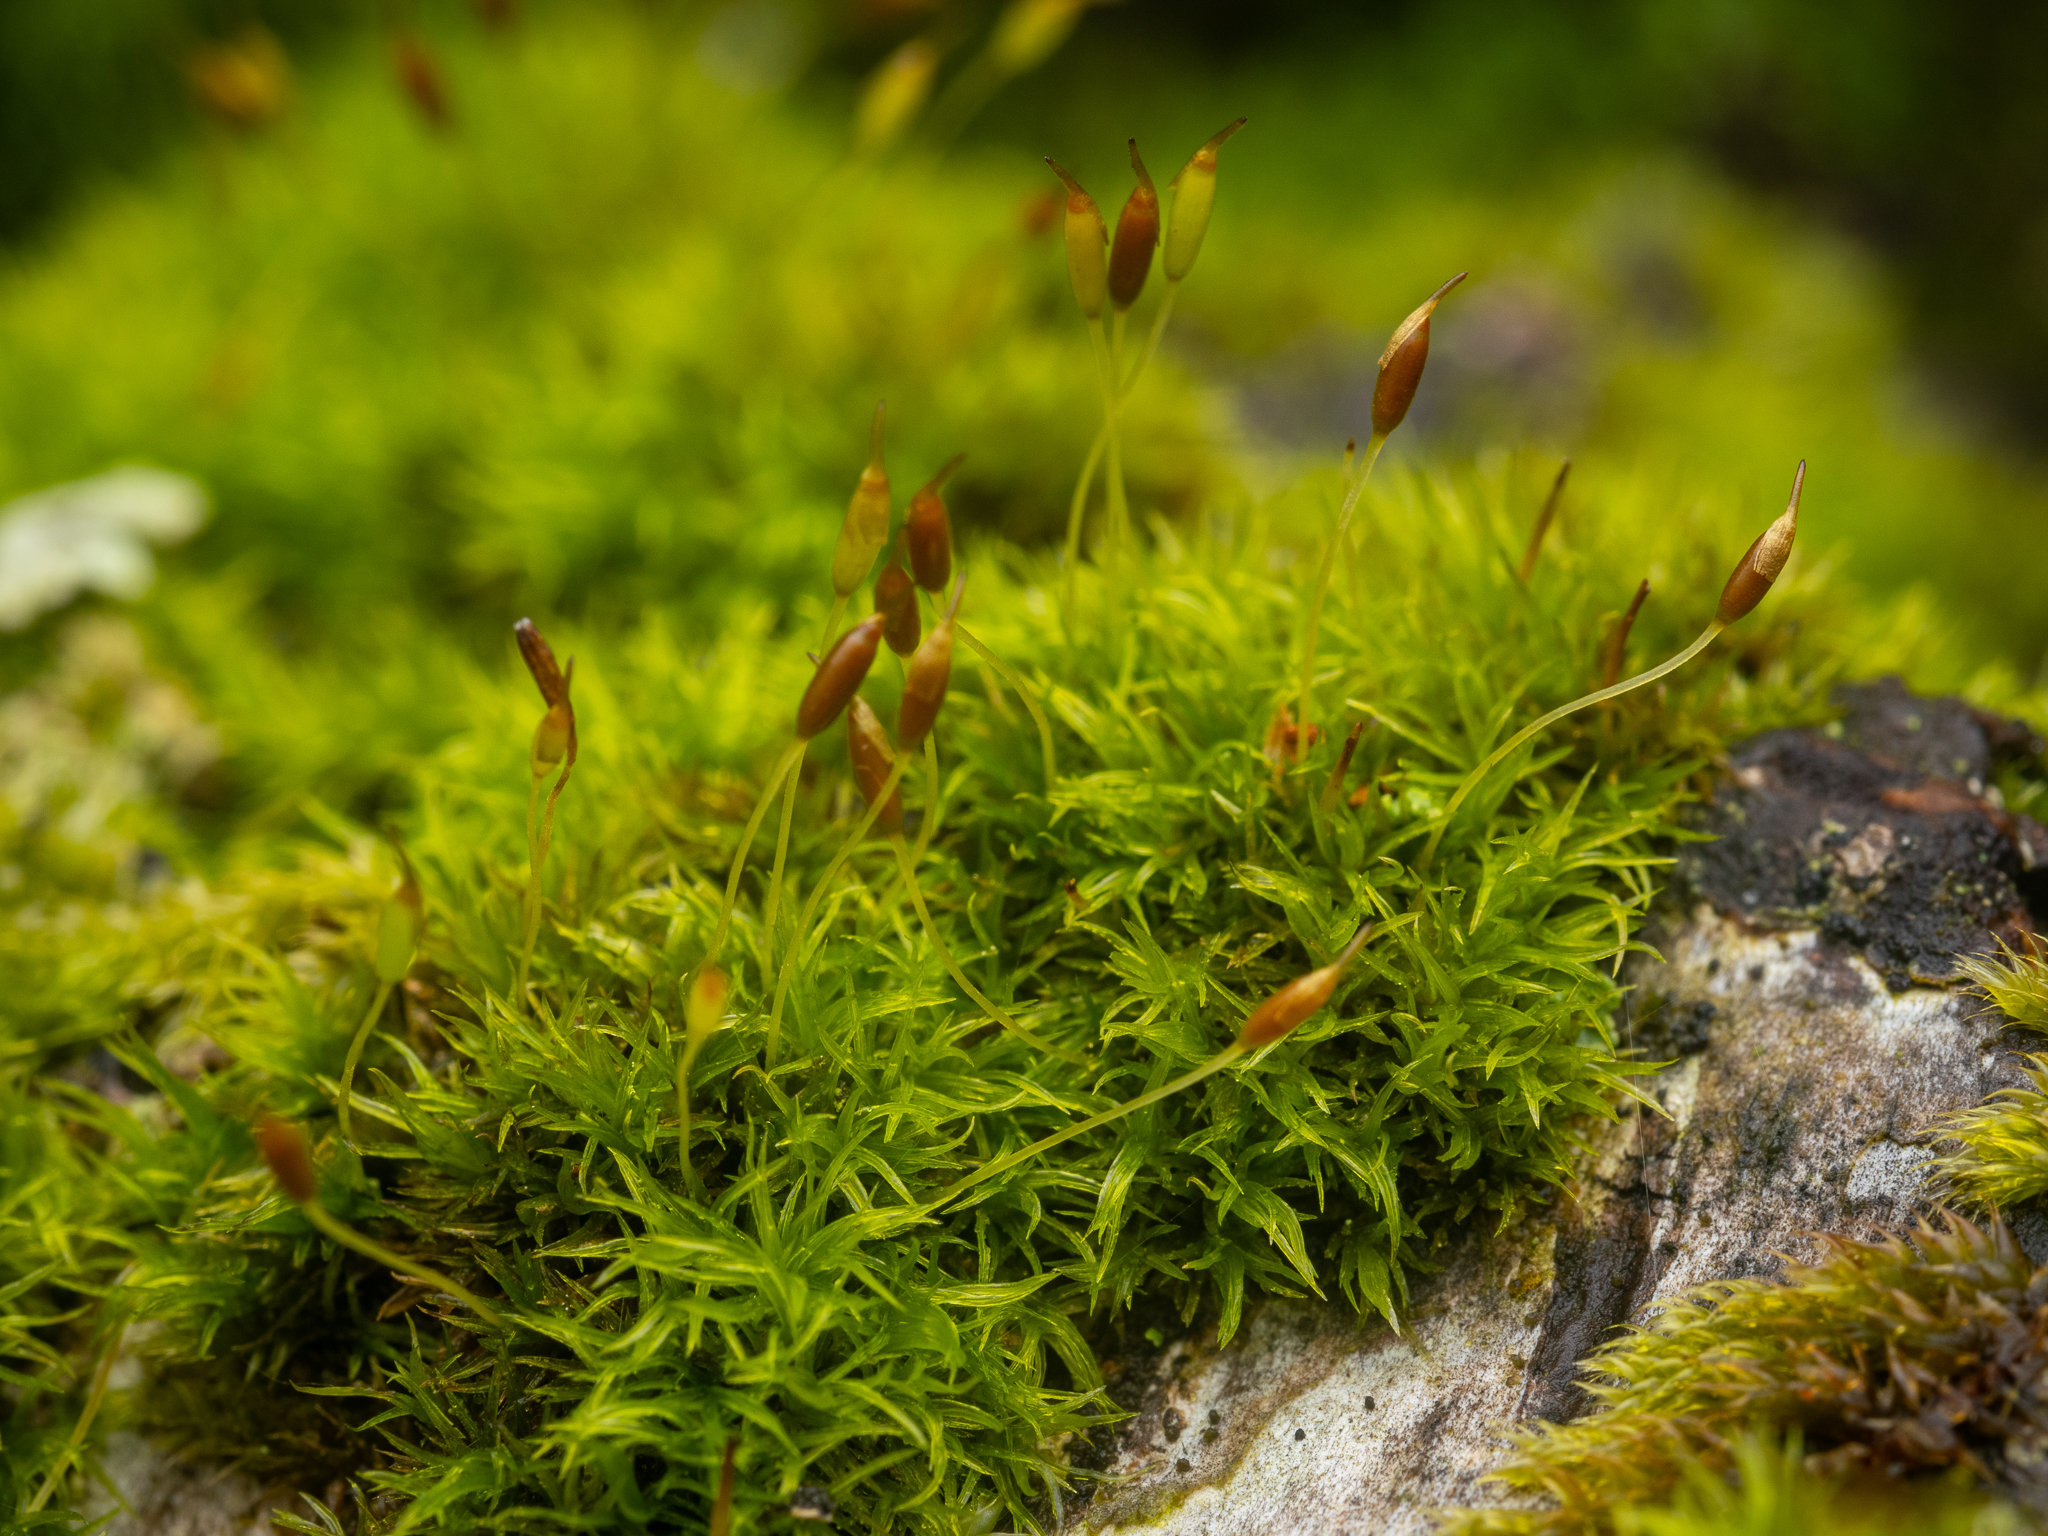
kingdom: Plantae
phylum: Bryophyta
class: Bryopsida
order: Dicranales
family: Rhabdoweisiaceae
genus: Dicranoweisia
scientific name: Dicranoweisia cirrata
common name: Common pincushion
